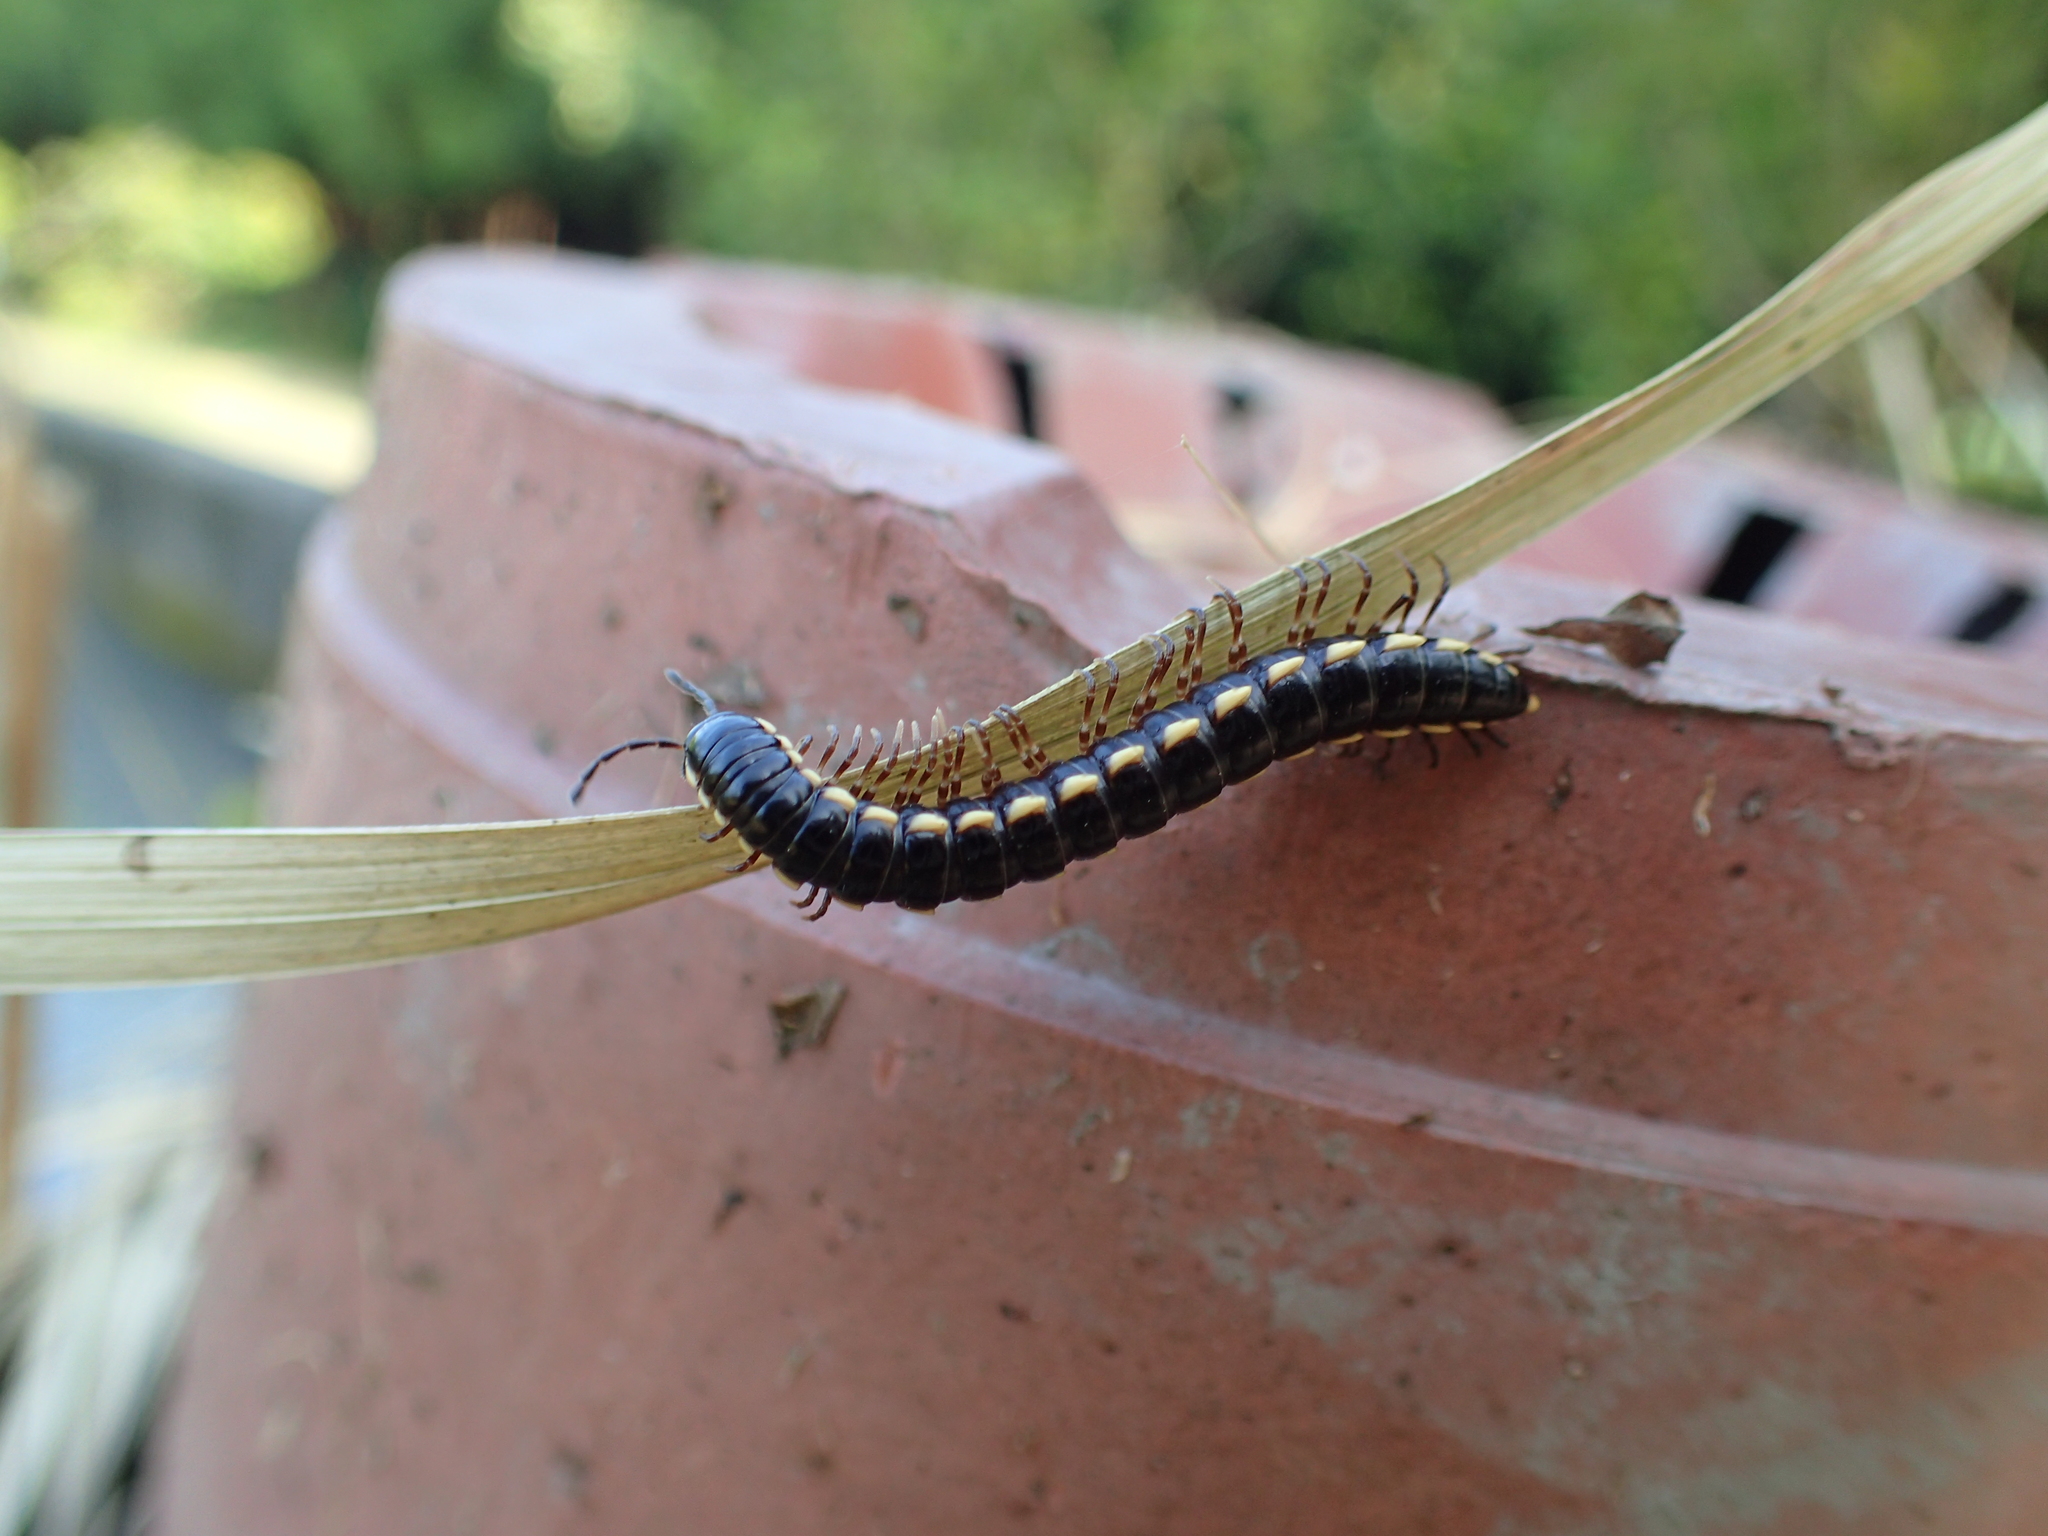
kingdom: Animalia
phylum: Arthropoda
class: Diplopoda
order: Polydesmida
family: Paradoxosomatidae
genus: Orthomorphella
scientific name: Orthomorphella pekuensis
